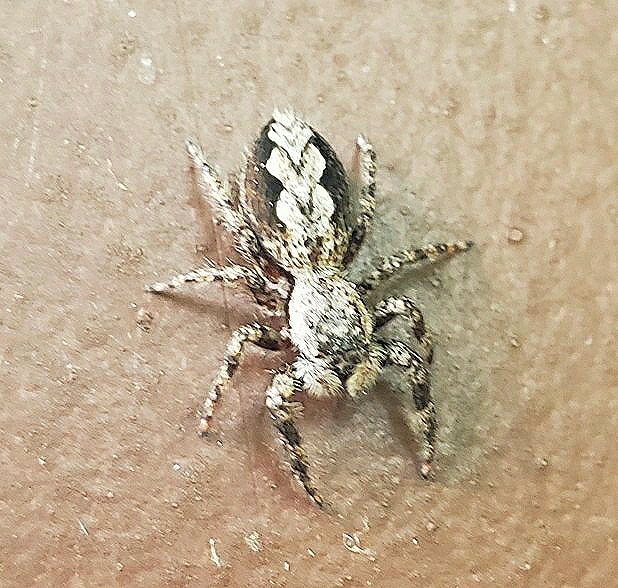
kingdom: Animalia
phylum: Arthropoda
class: Arachnida
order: Araneae
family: Salticidae
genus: Platycryptus
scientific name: Platycryptus undatus
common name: Tan jumping spider
